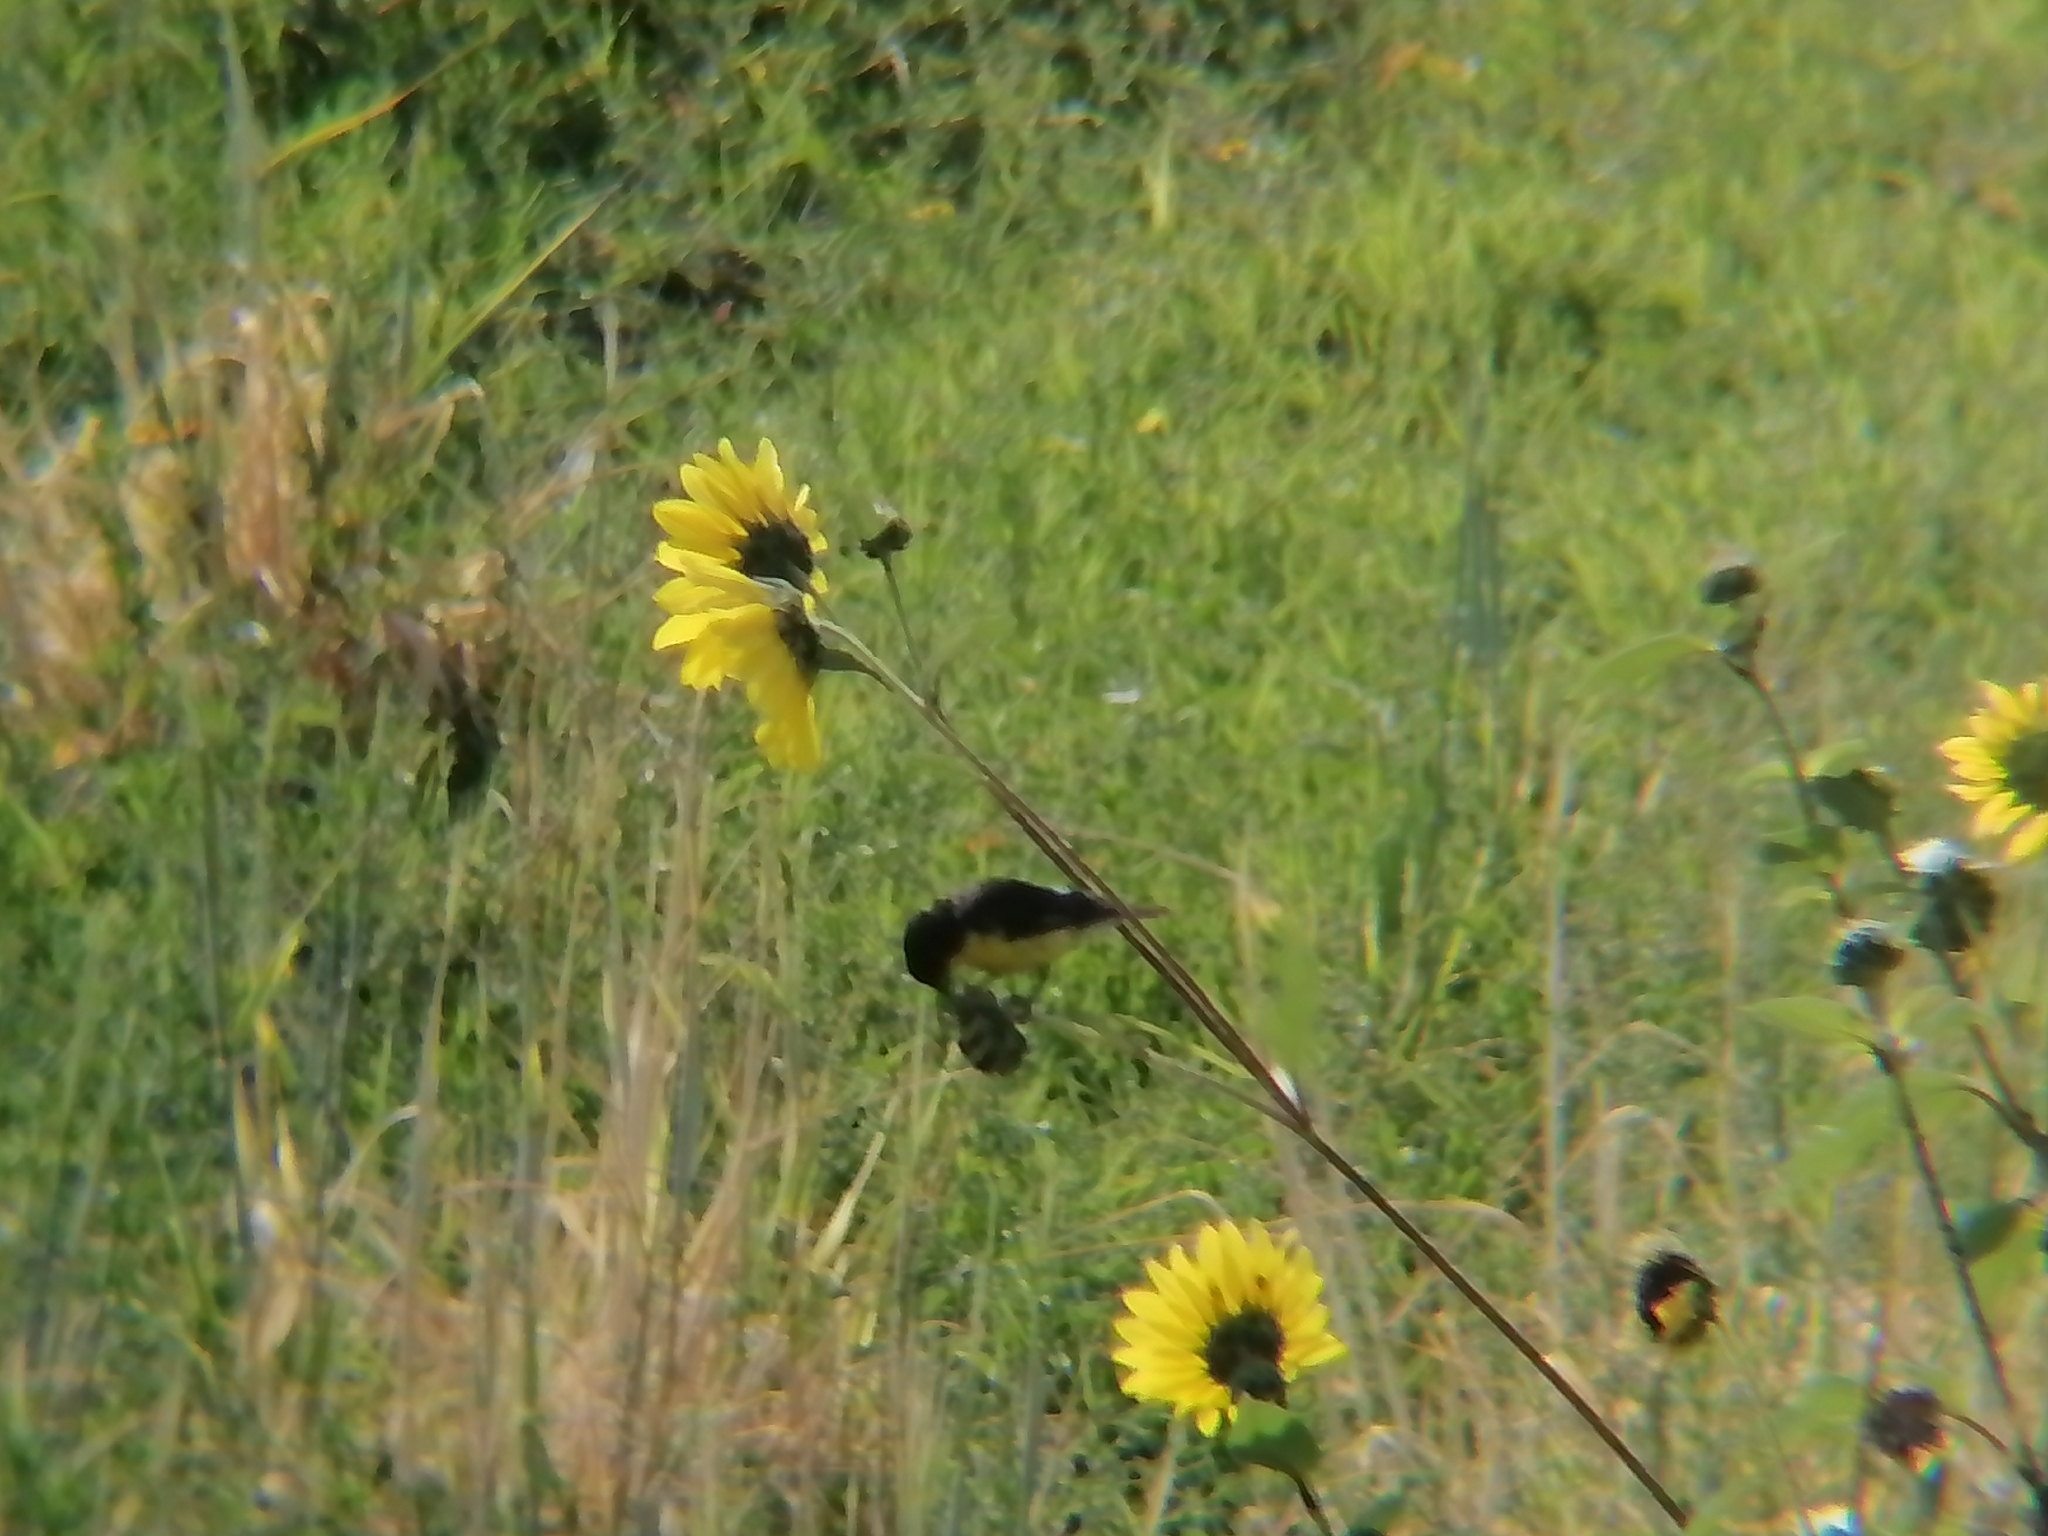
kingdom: Animalia
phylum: Chordata
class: Aves
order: Passeriformes
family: Fringillidae
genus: Spinus
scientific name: Spinus psaltria
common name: Lesser goldfinch
